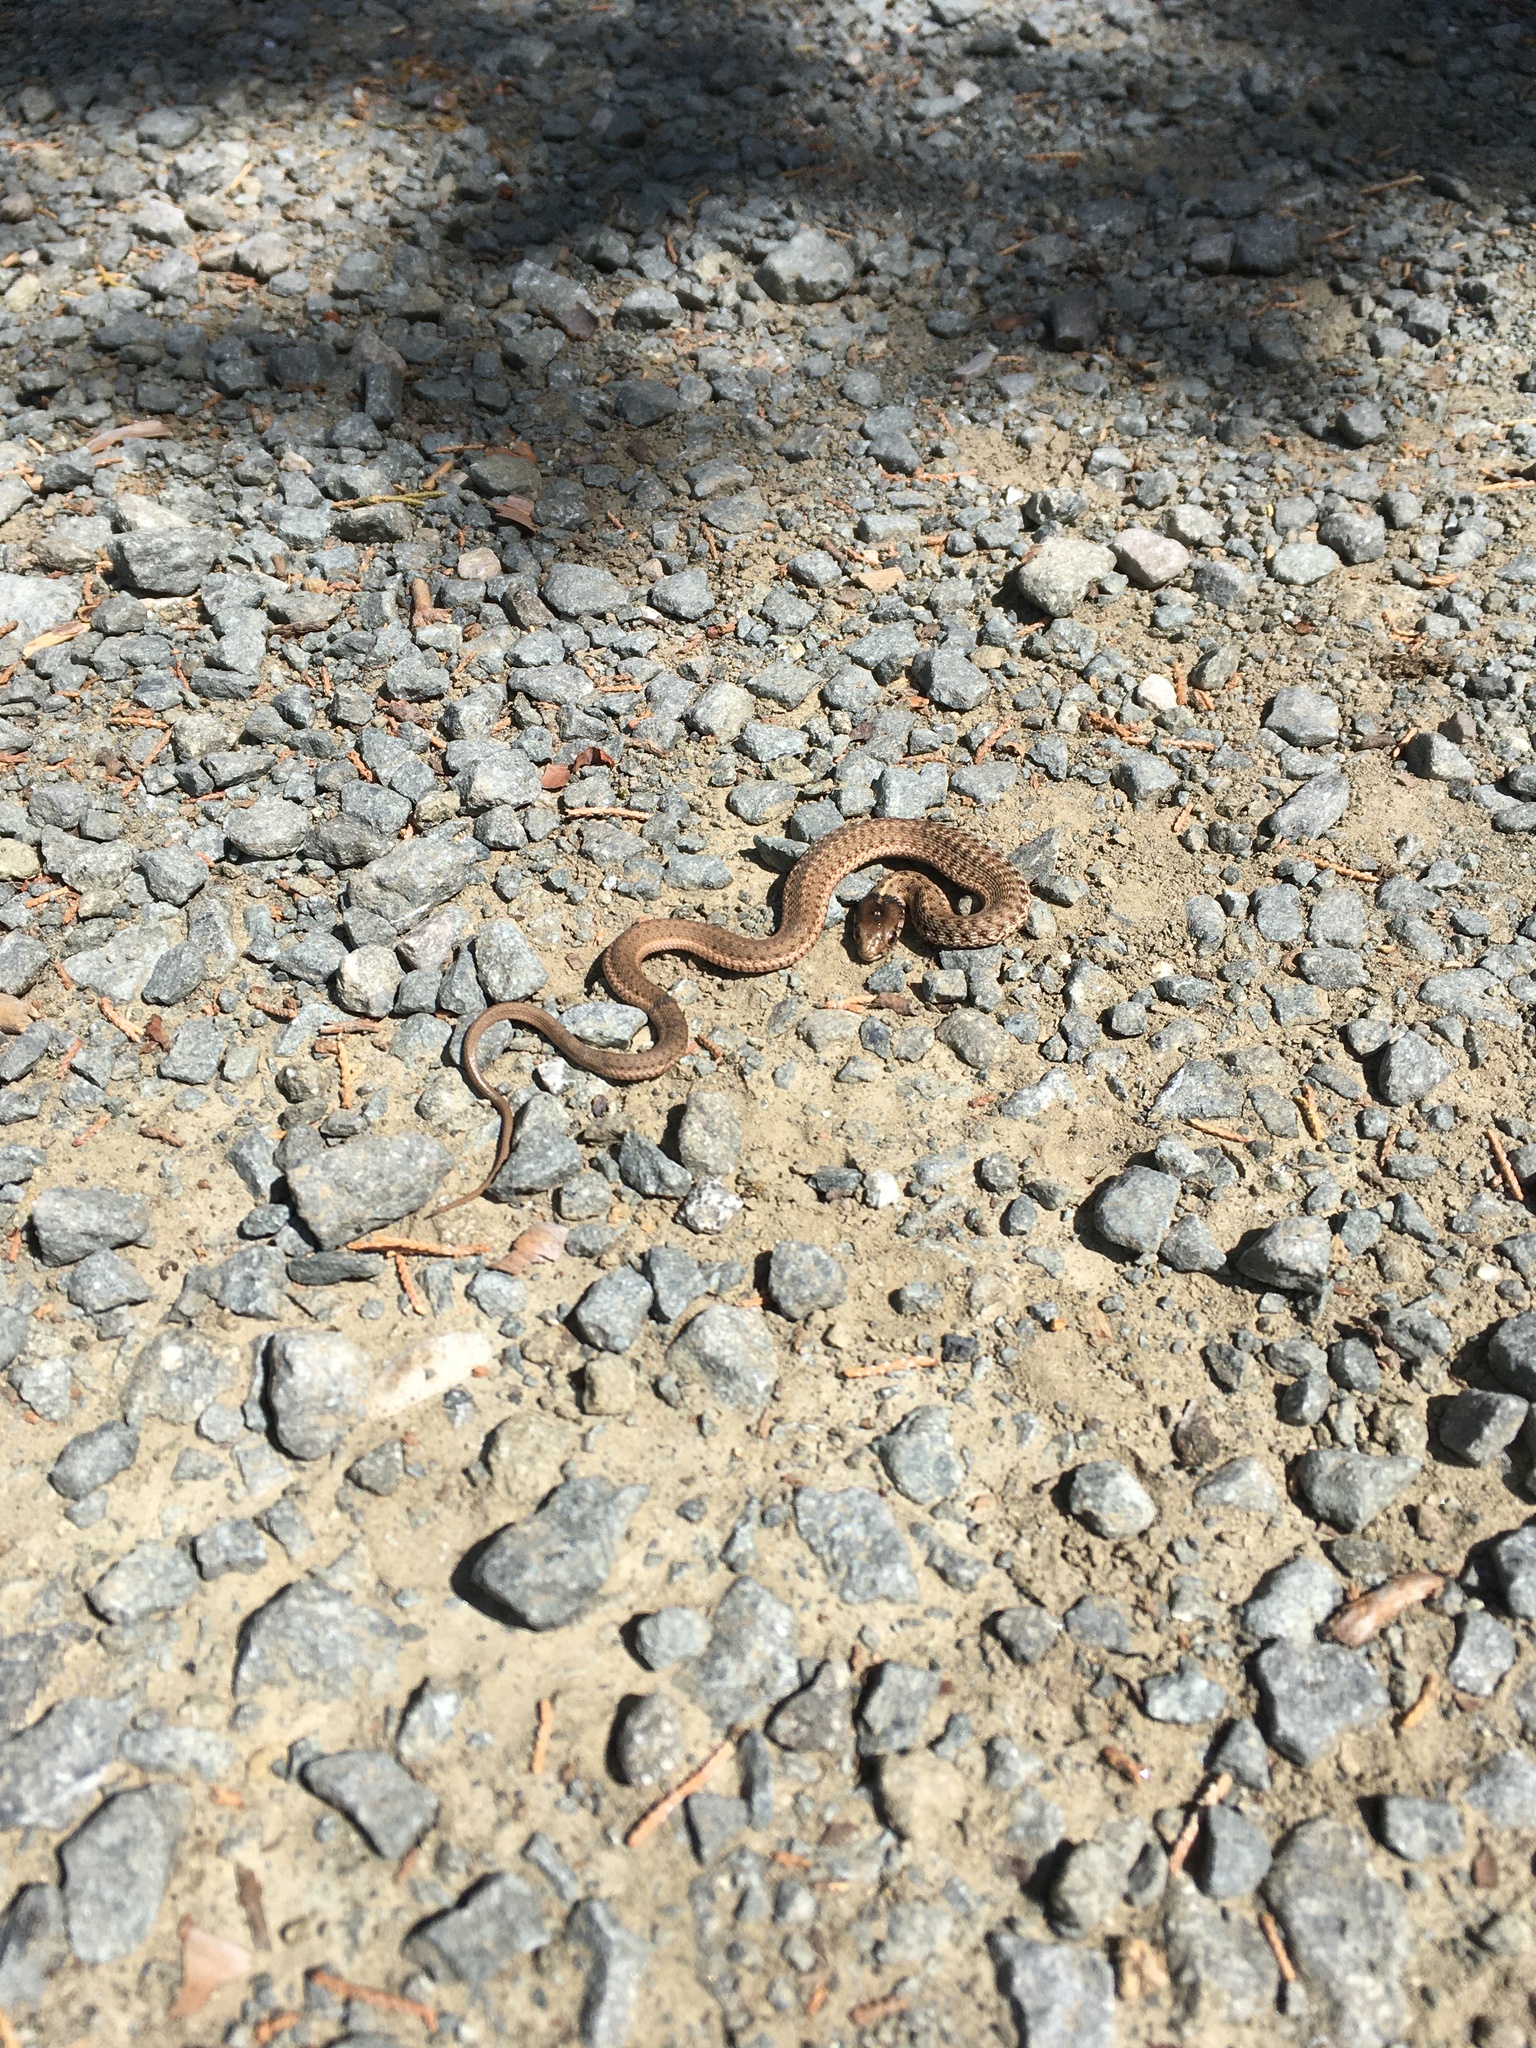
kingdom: Animalia
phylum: Chordata
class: Squamata
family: Colubridae
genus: Thamnophis
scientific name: Thamnophis elegans
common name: Western terrestrial garter snake
